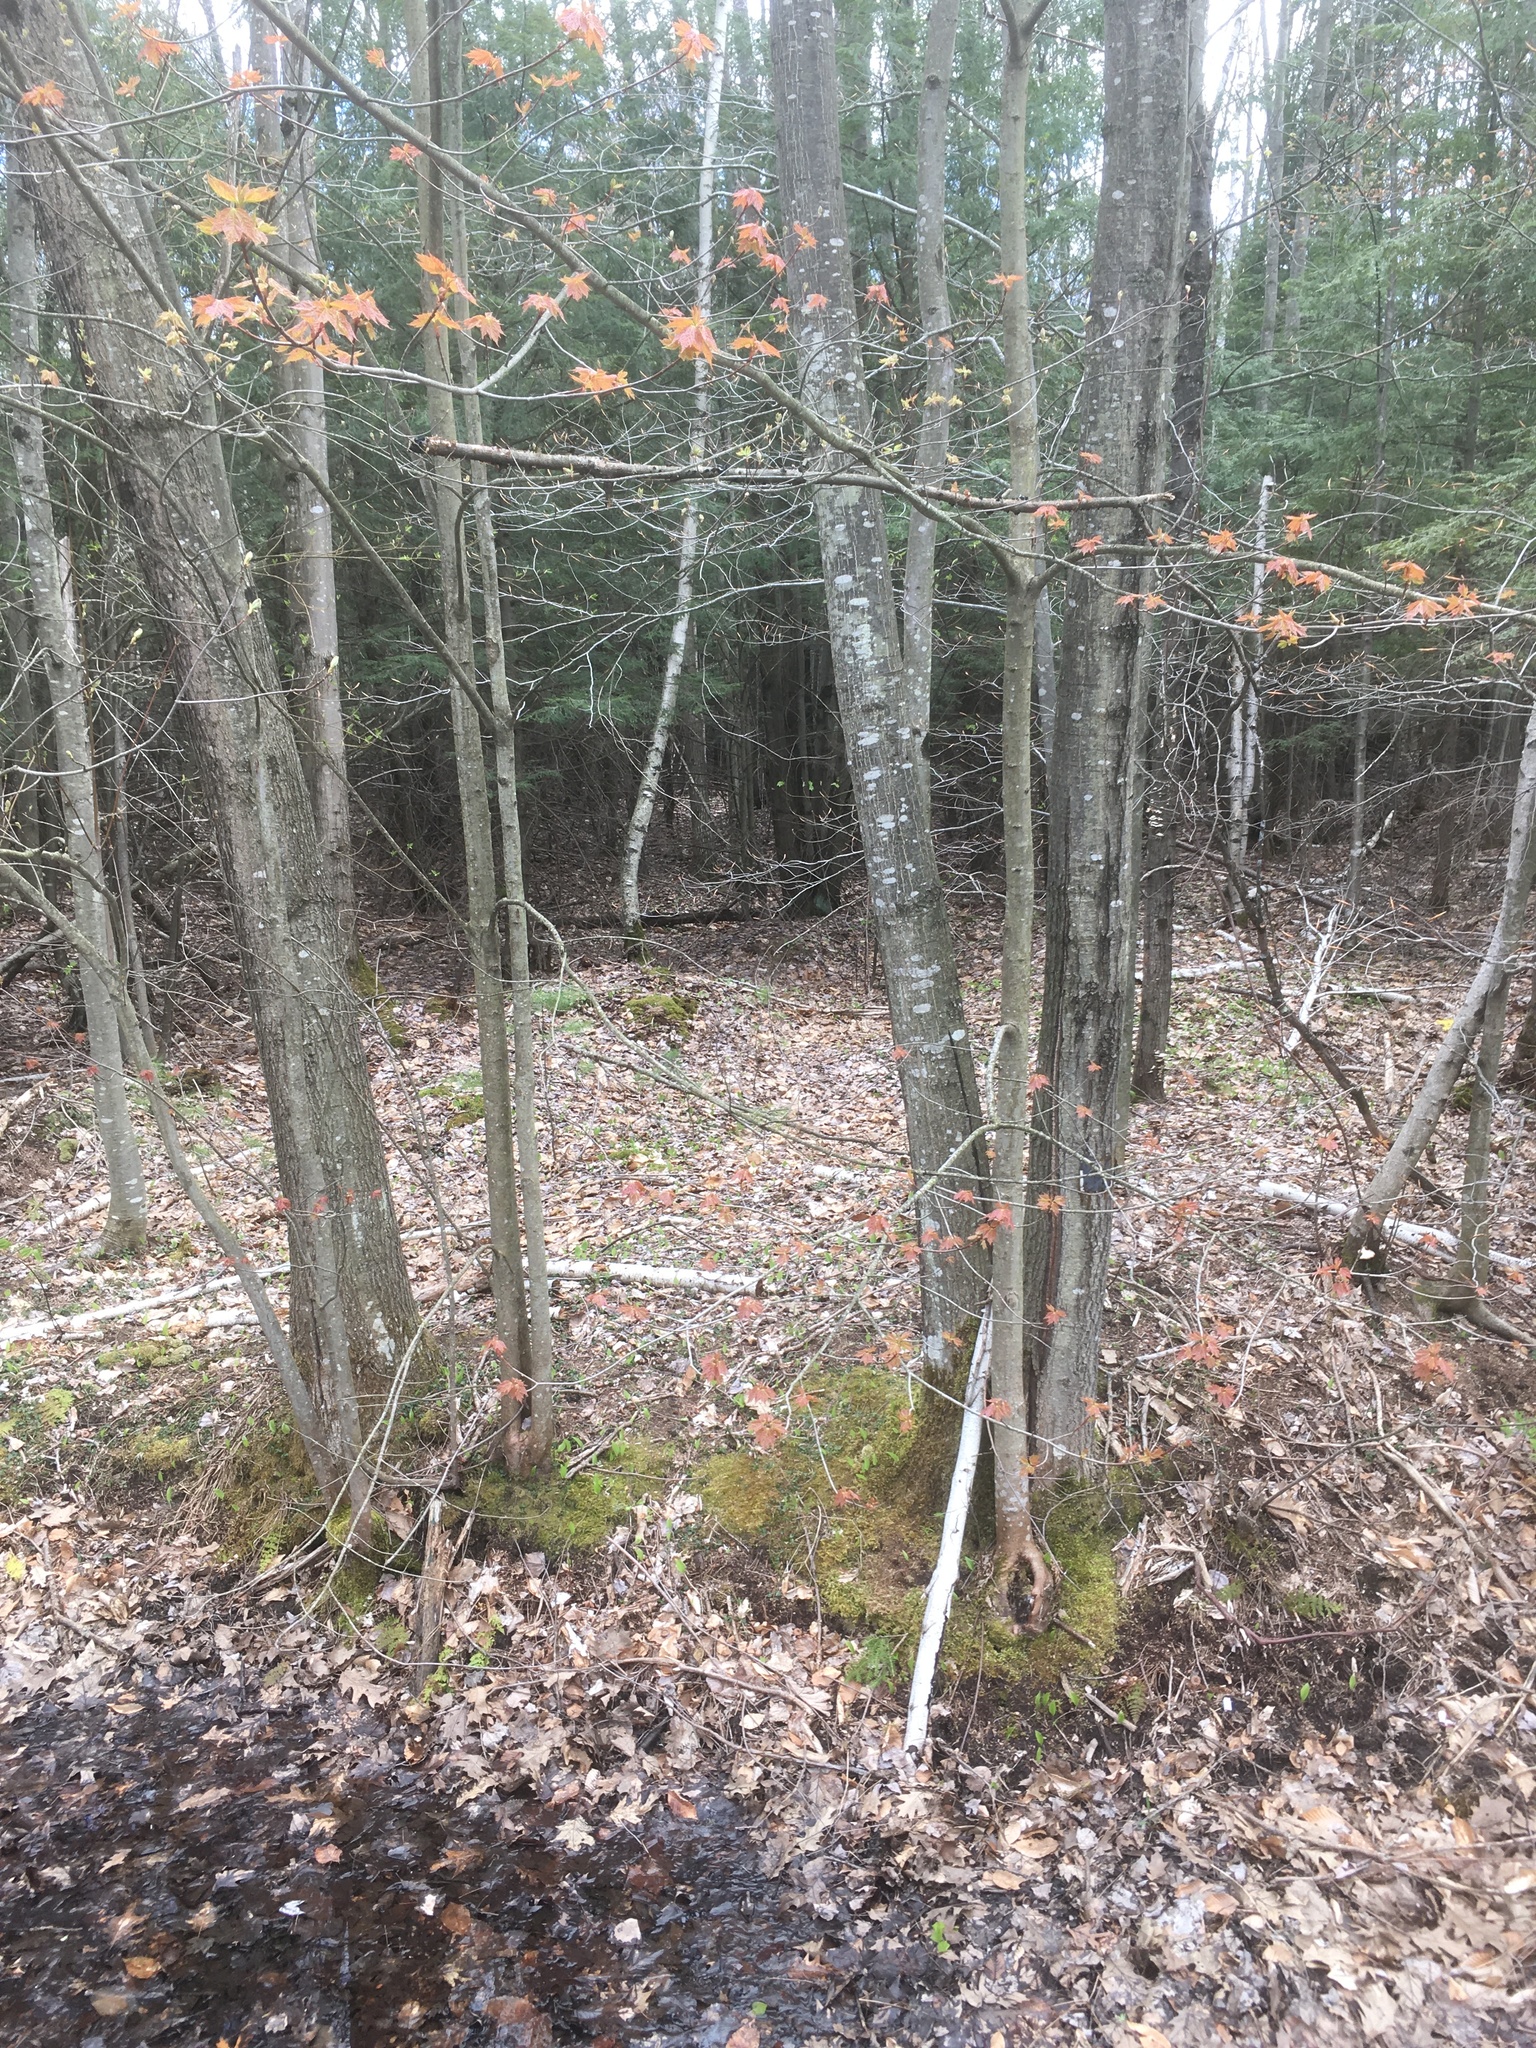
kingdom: Plantae
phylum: Tracheophyta
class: Magnoliopsida
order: Sapindales
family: Sapindaceae
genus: Acer
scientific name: Acer rubrum
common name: Red maple
